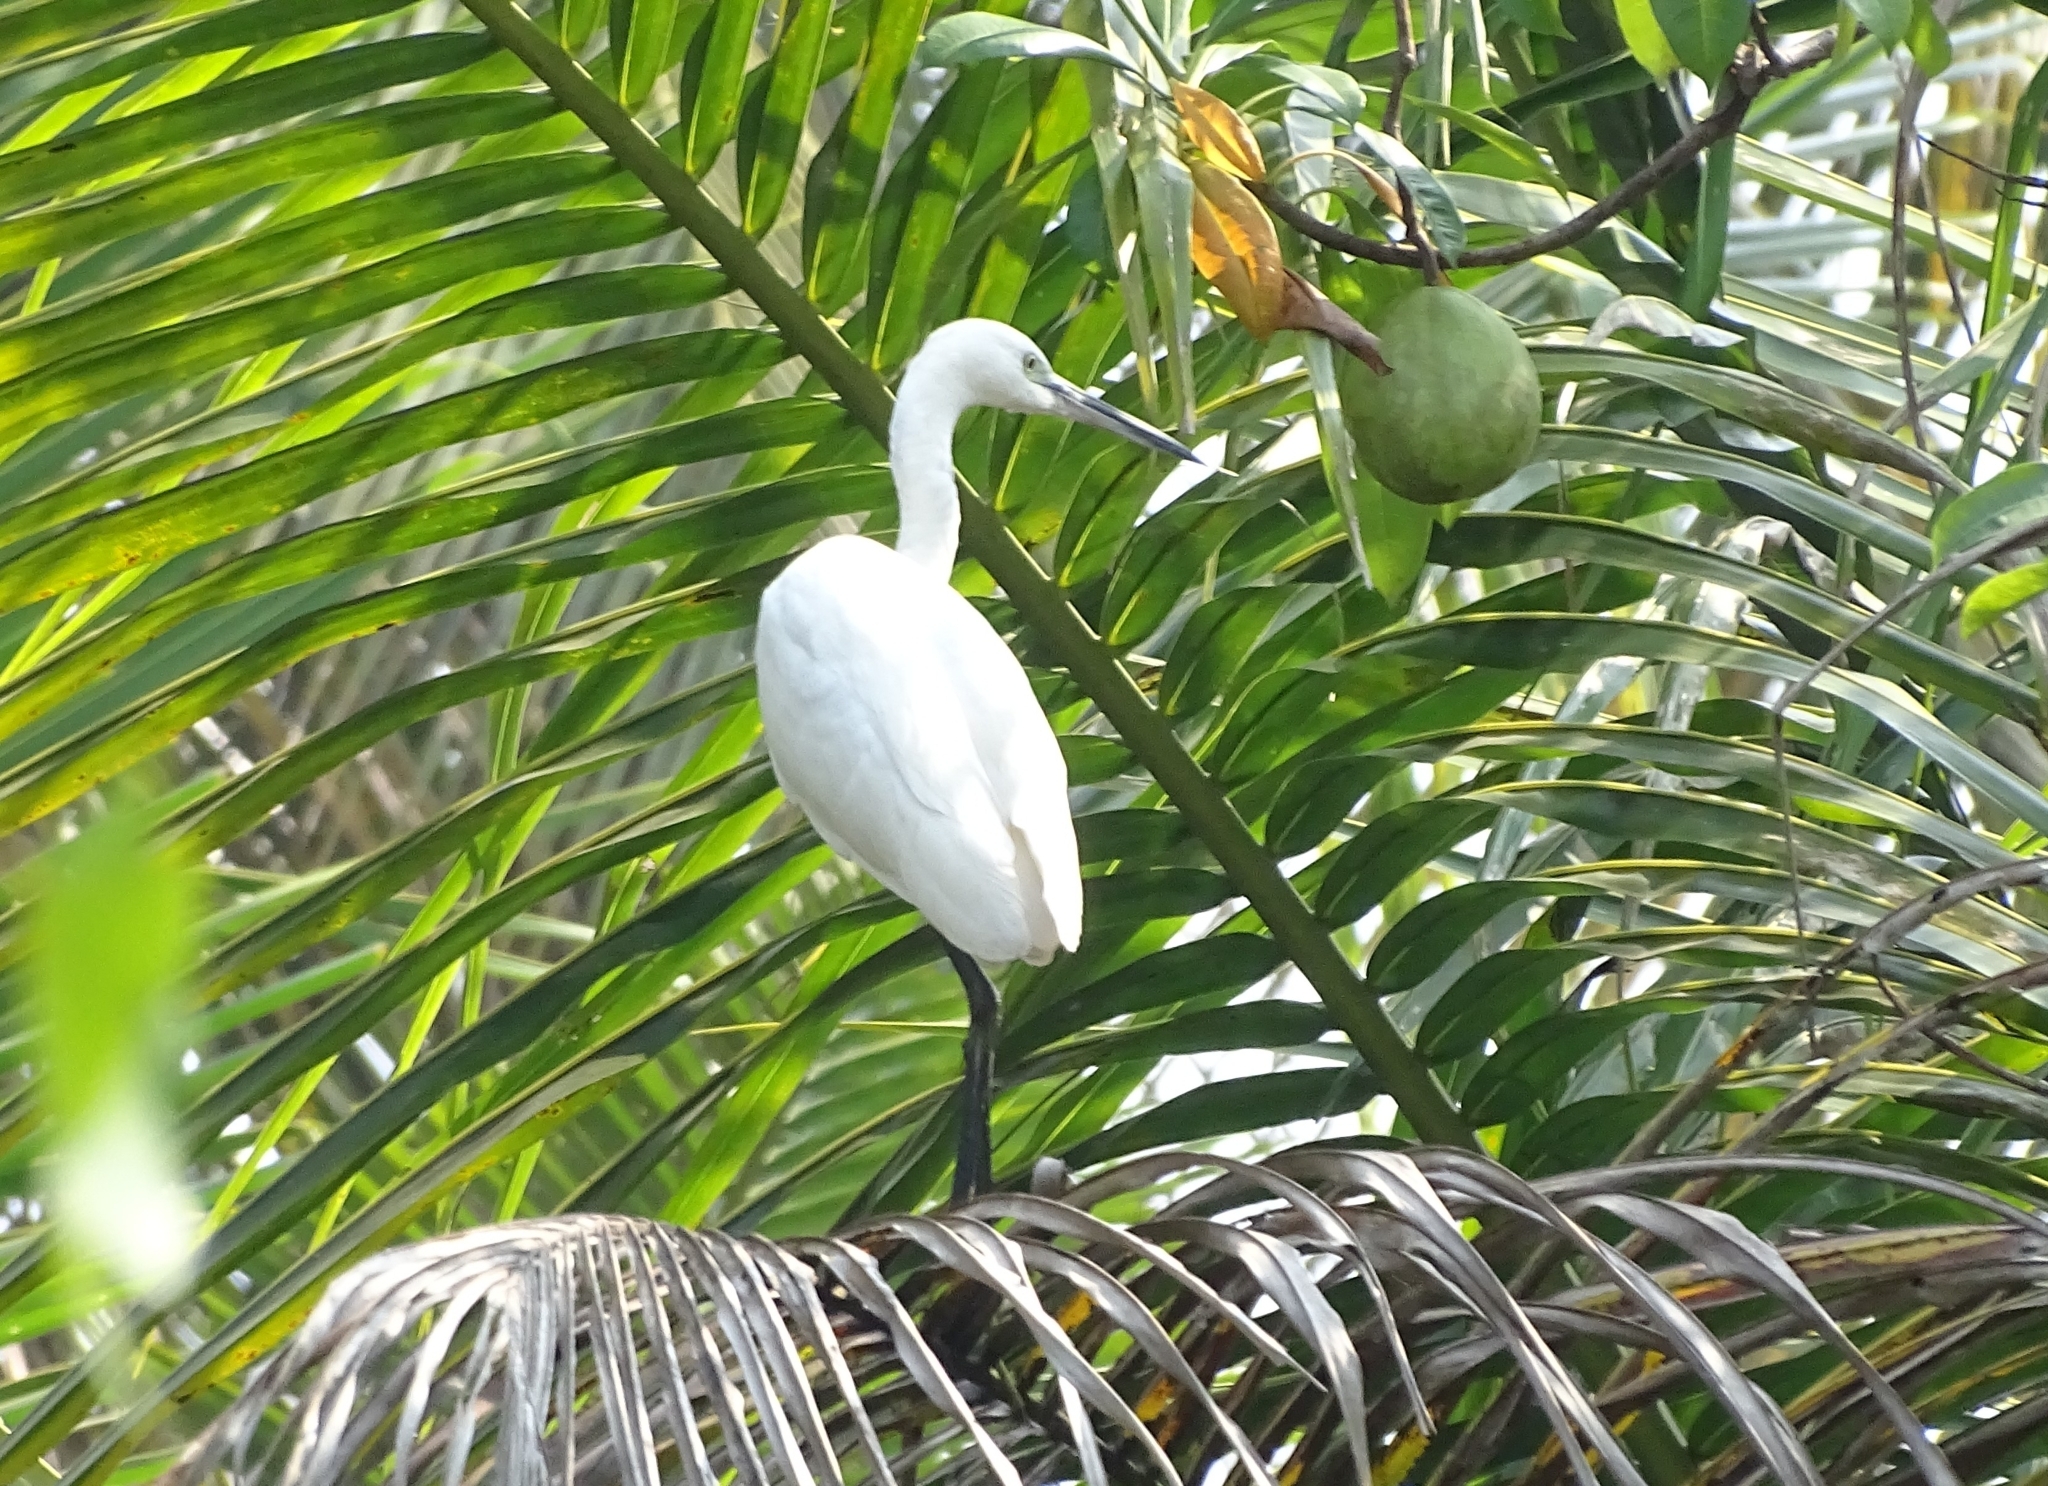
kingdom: Animalia
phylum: Chordata
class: Aves
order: Pelecaniformes
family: Ardeidae
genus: Egretta
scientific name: Egretta garzetta
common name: Little egret
